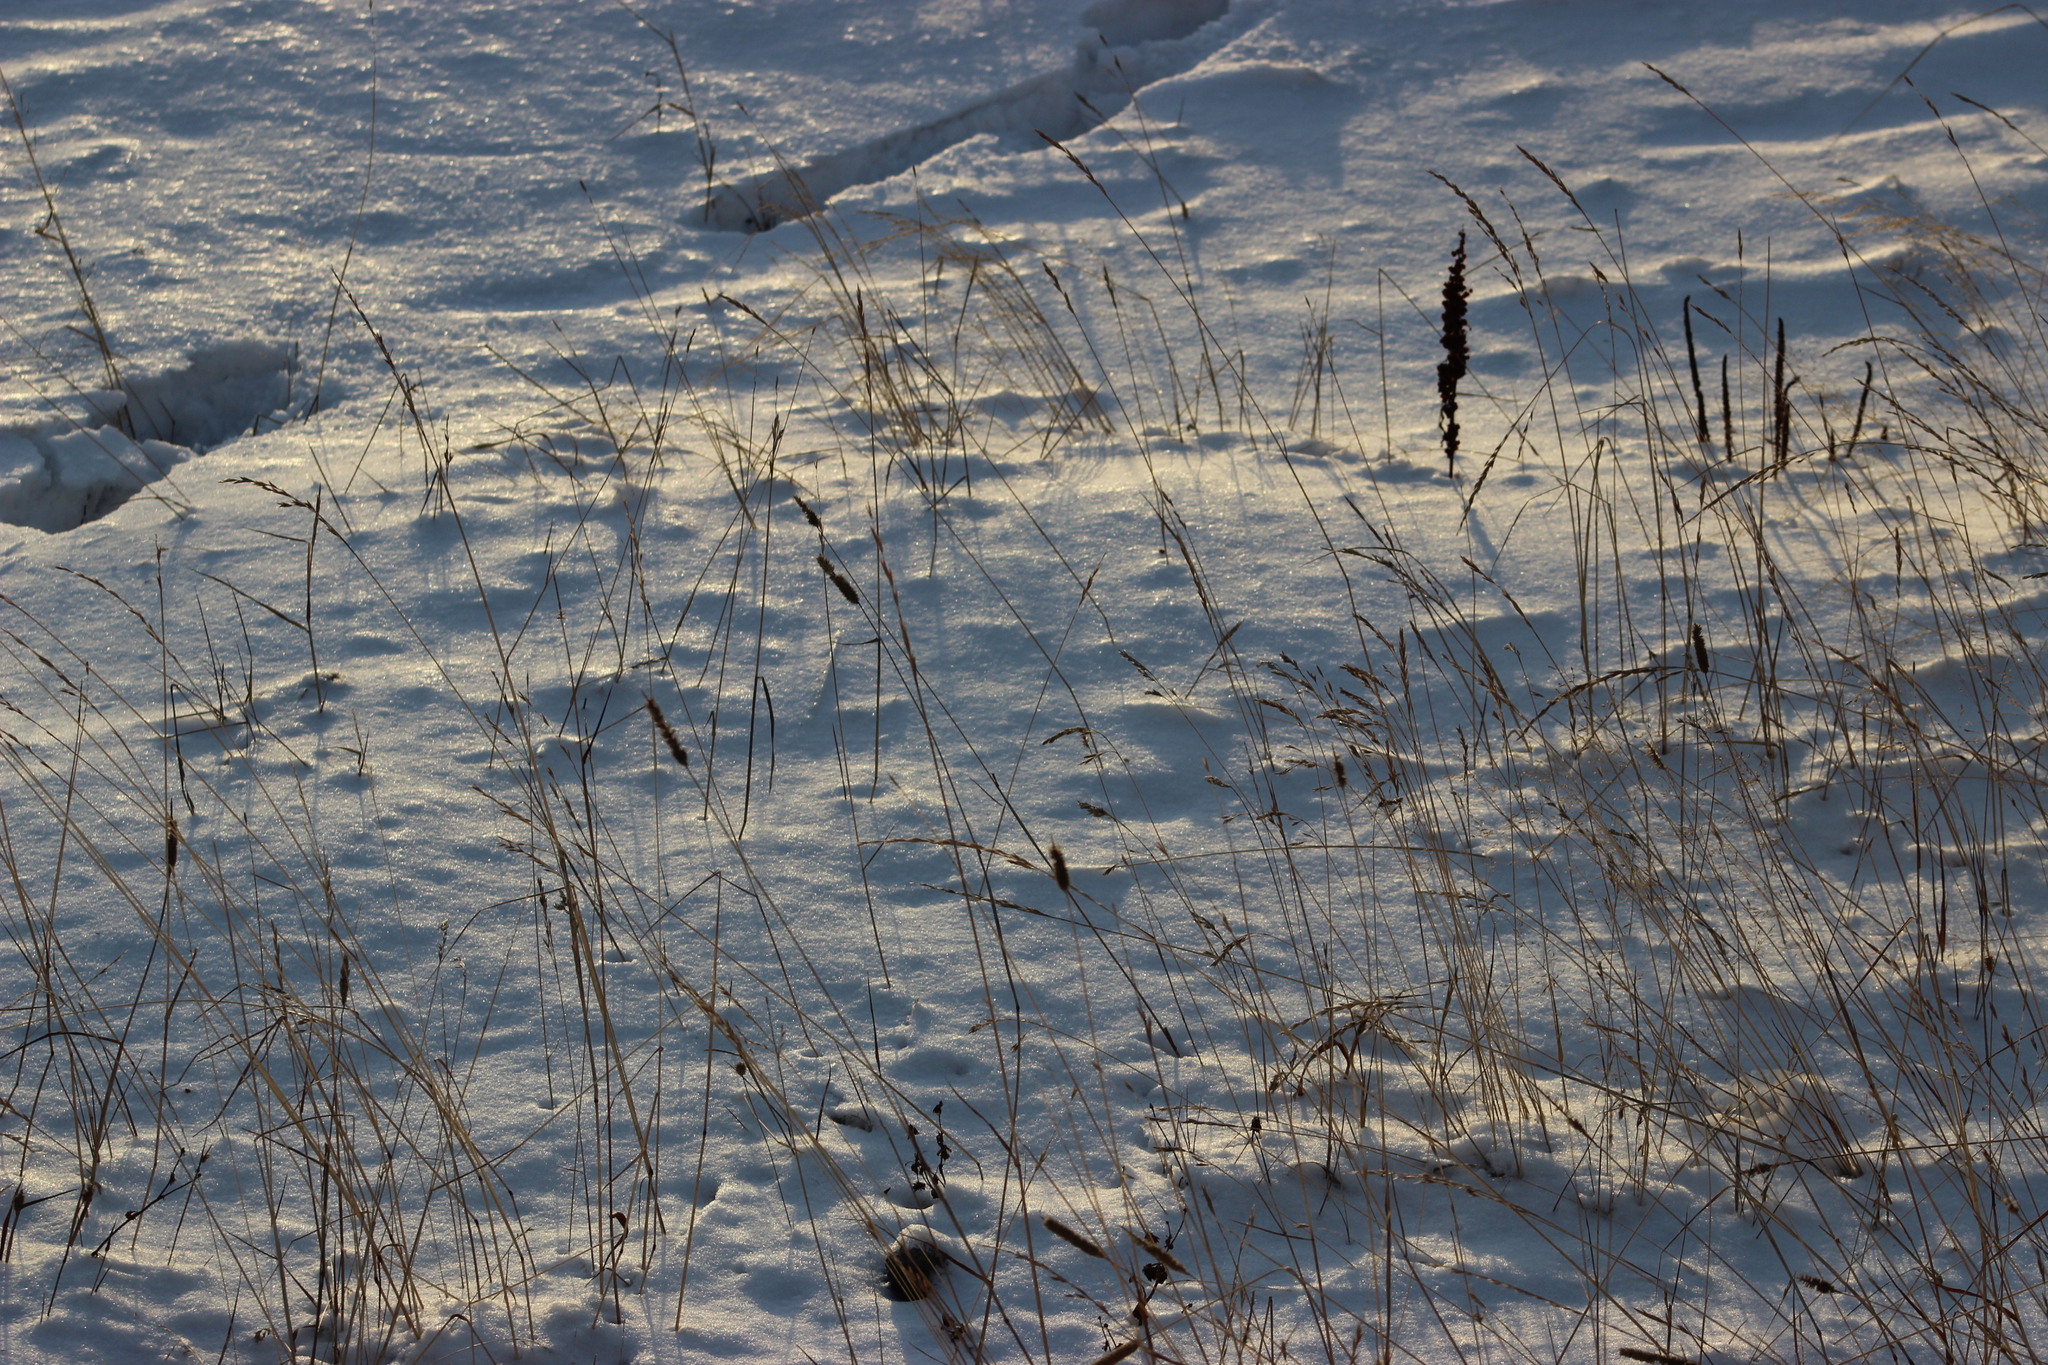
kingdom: Plantae
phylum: Tracheophyta
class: Liliopsida
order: Poales
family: Poaceae
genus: Phleum
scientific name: Phleum pratense
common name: Timothy grass
